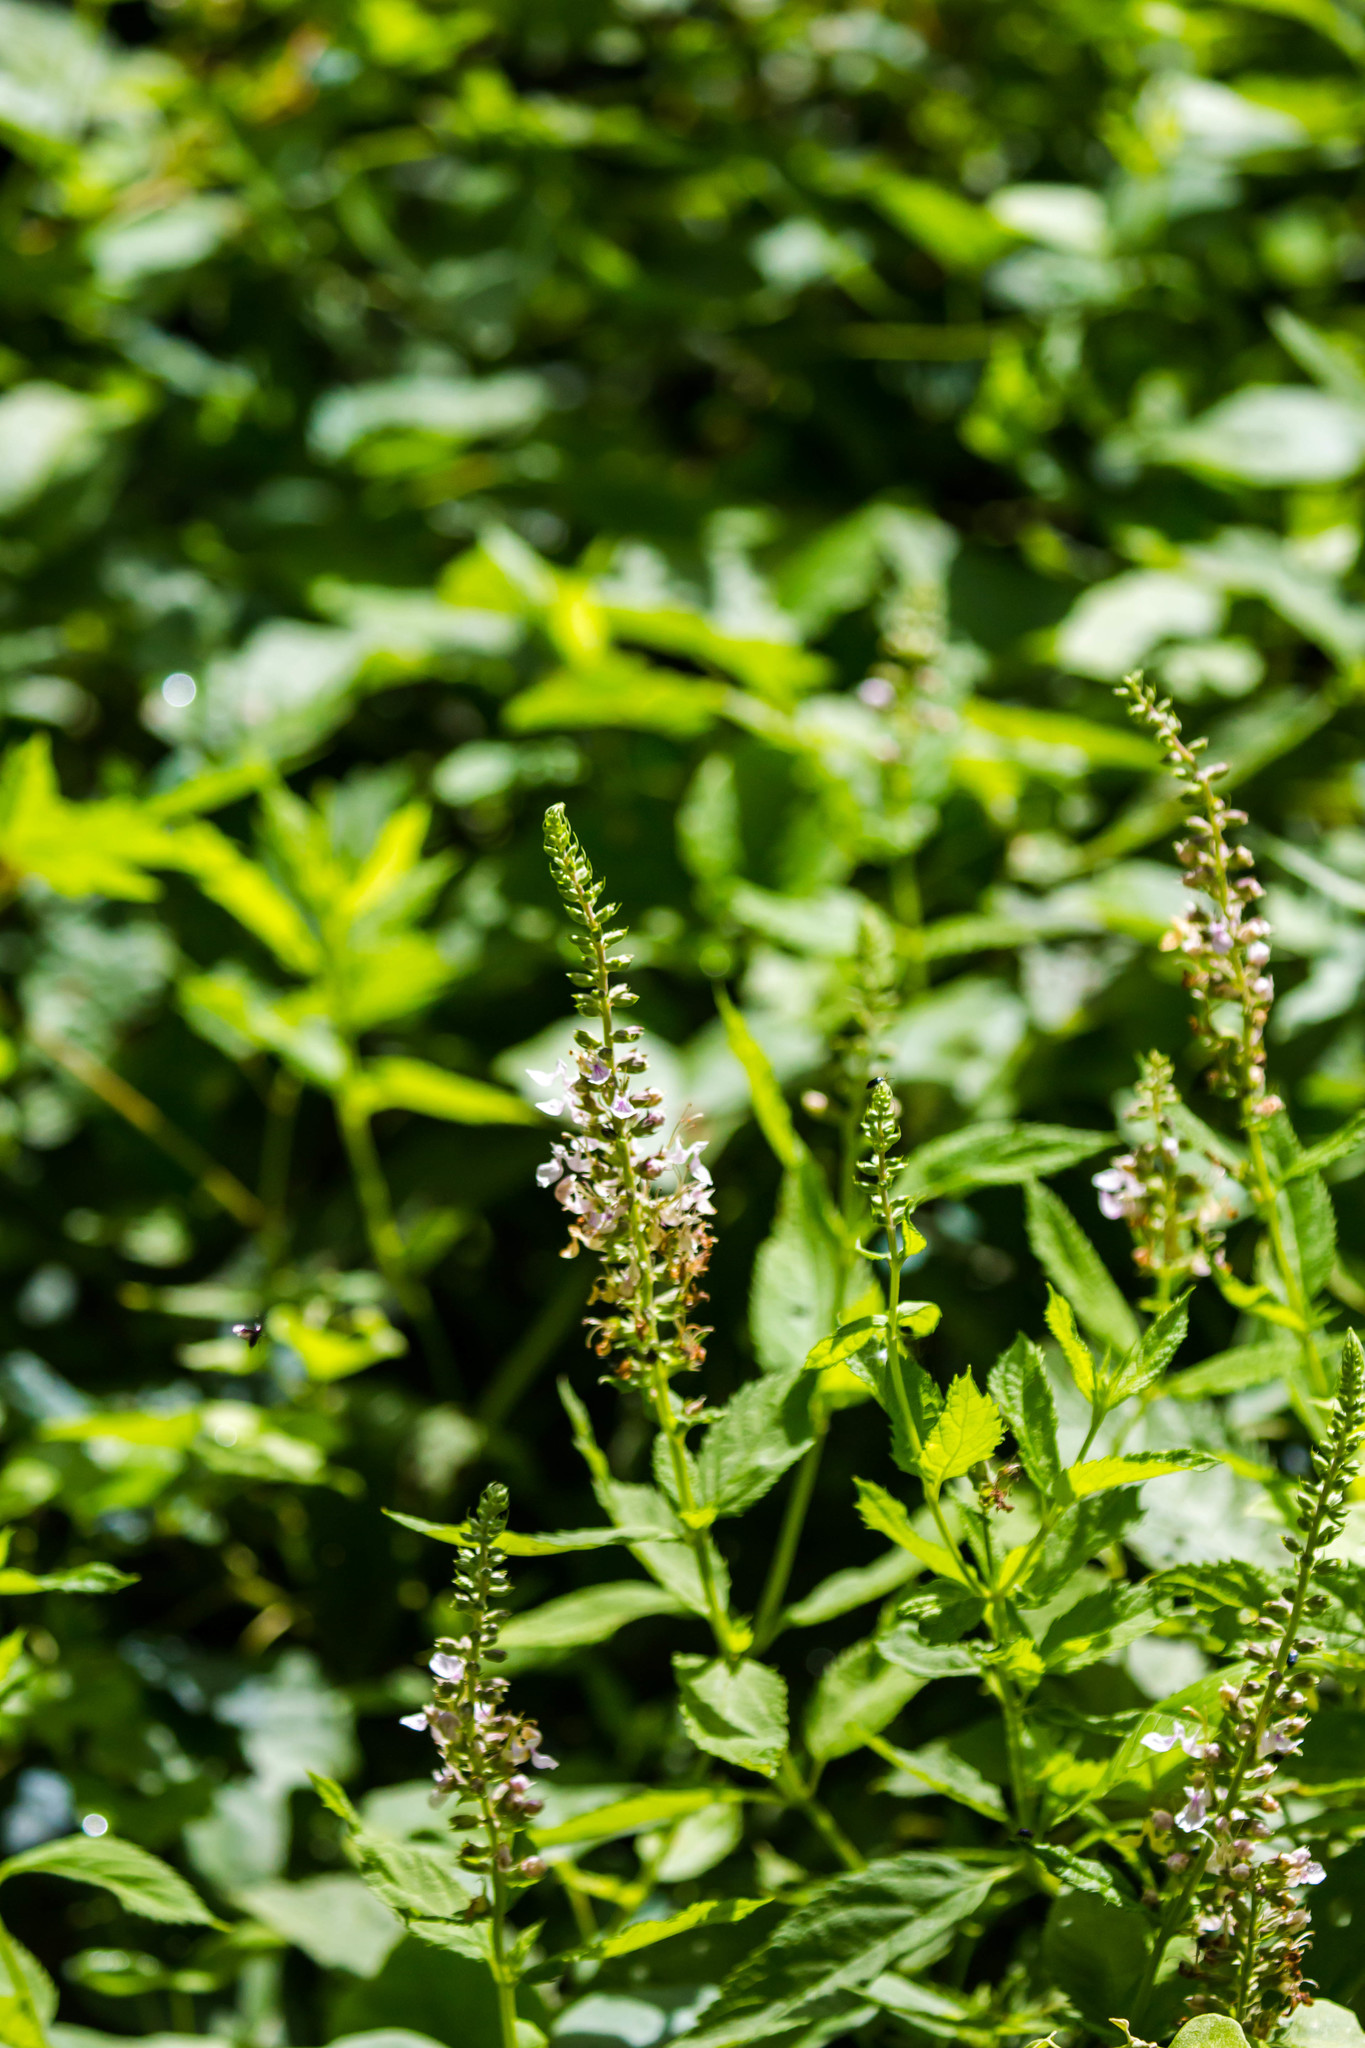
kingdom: Plantae
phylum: Tracheophyta
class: Magnoliopsida
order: Lamiales
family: Lamiaceae
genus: Teucrium
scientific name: Teucrium canadense
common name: American germander
